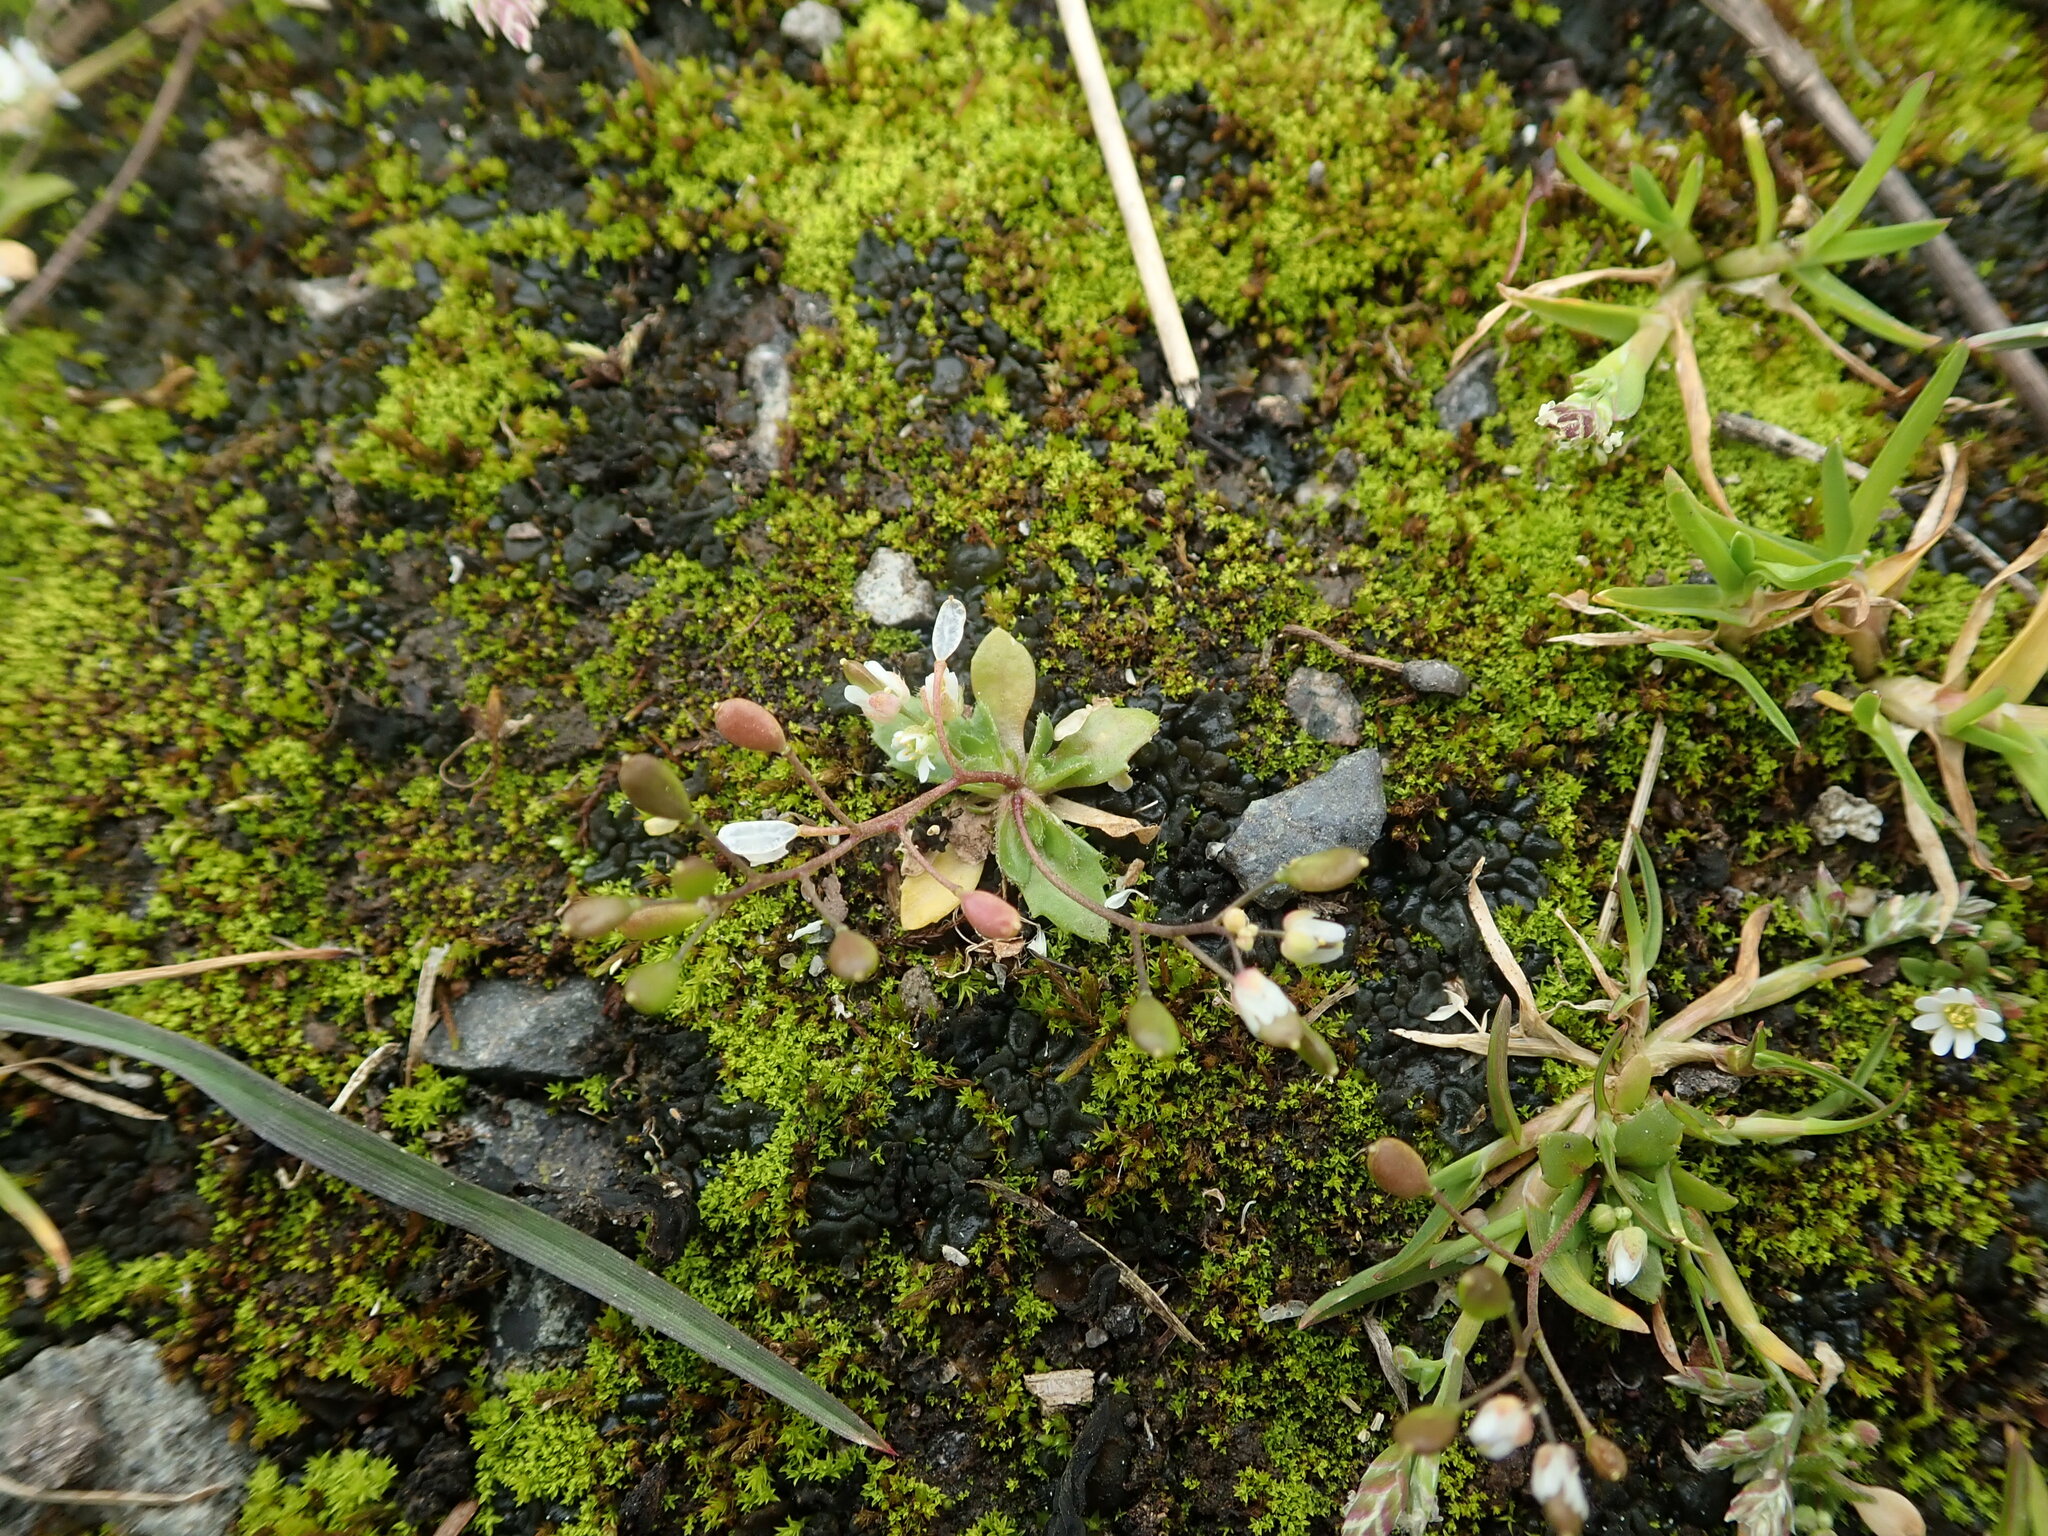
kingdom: Plantae
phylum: Tracheophyta
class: Magnoliopsida
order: Brassicales
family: Brassicaceae
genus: Draba
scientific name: Draba verna
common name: Spring draba
